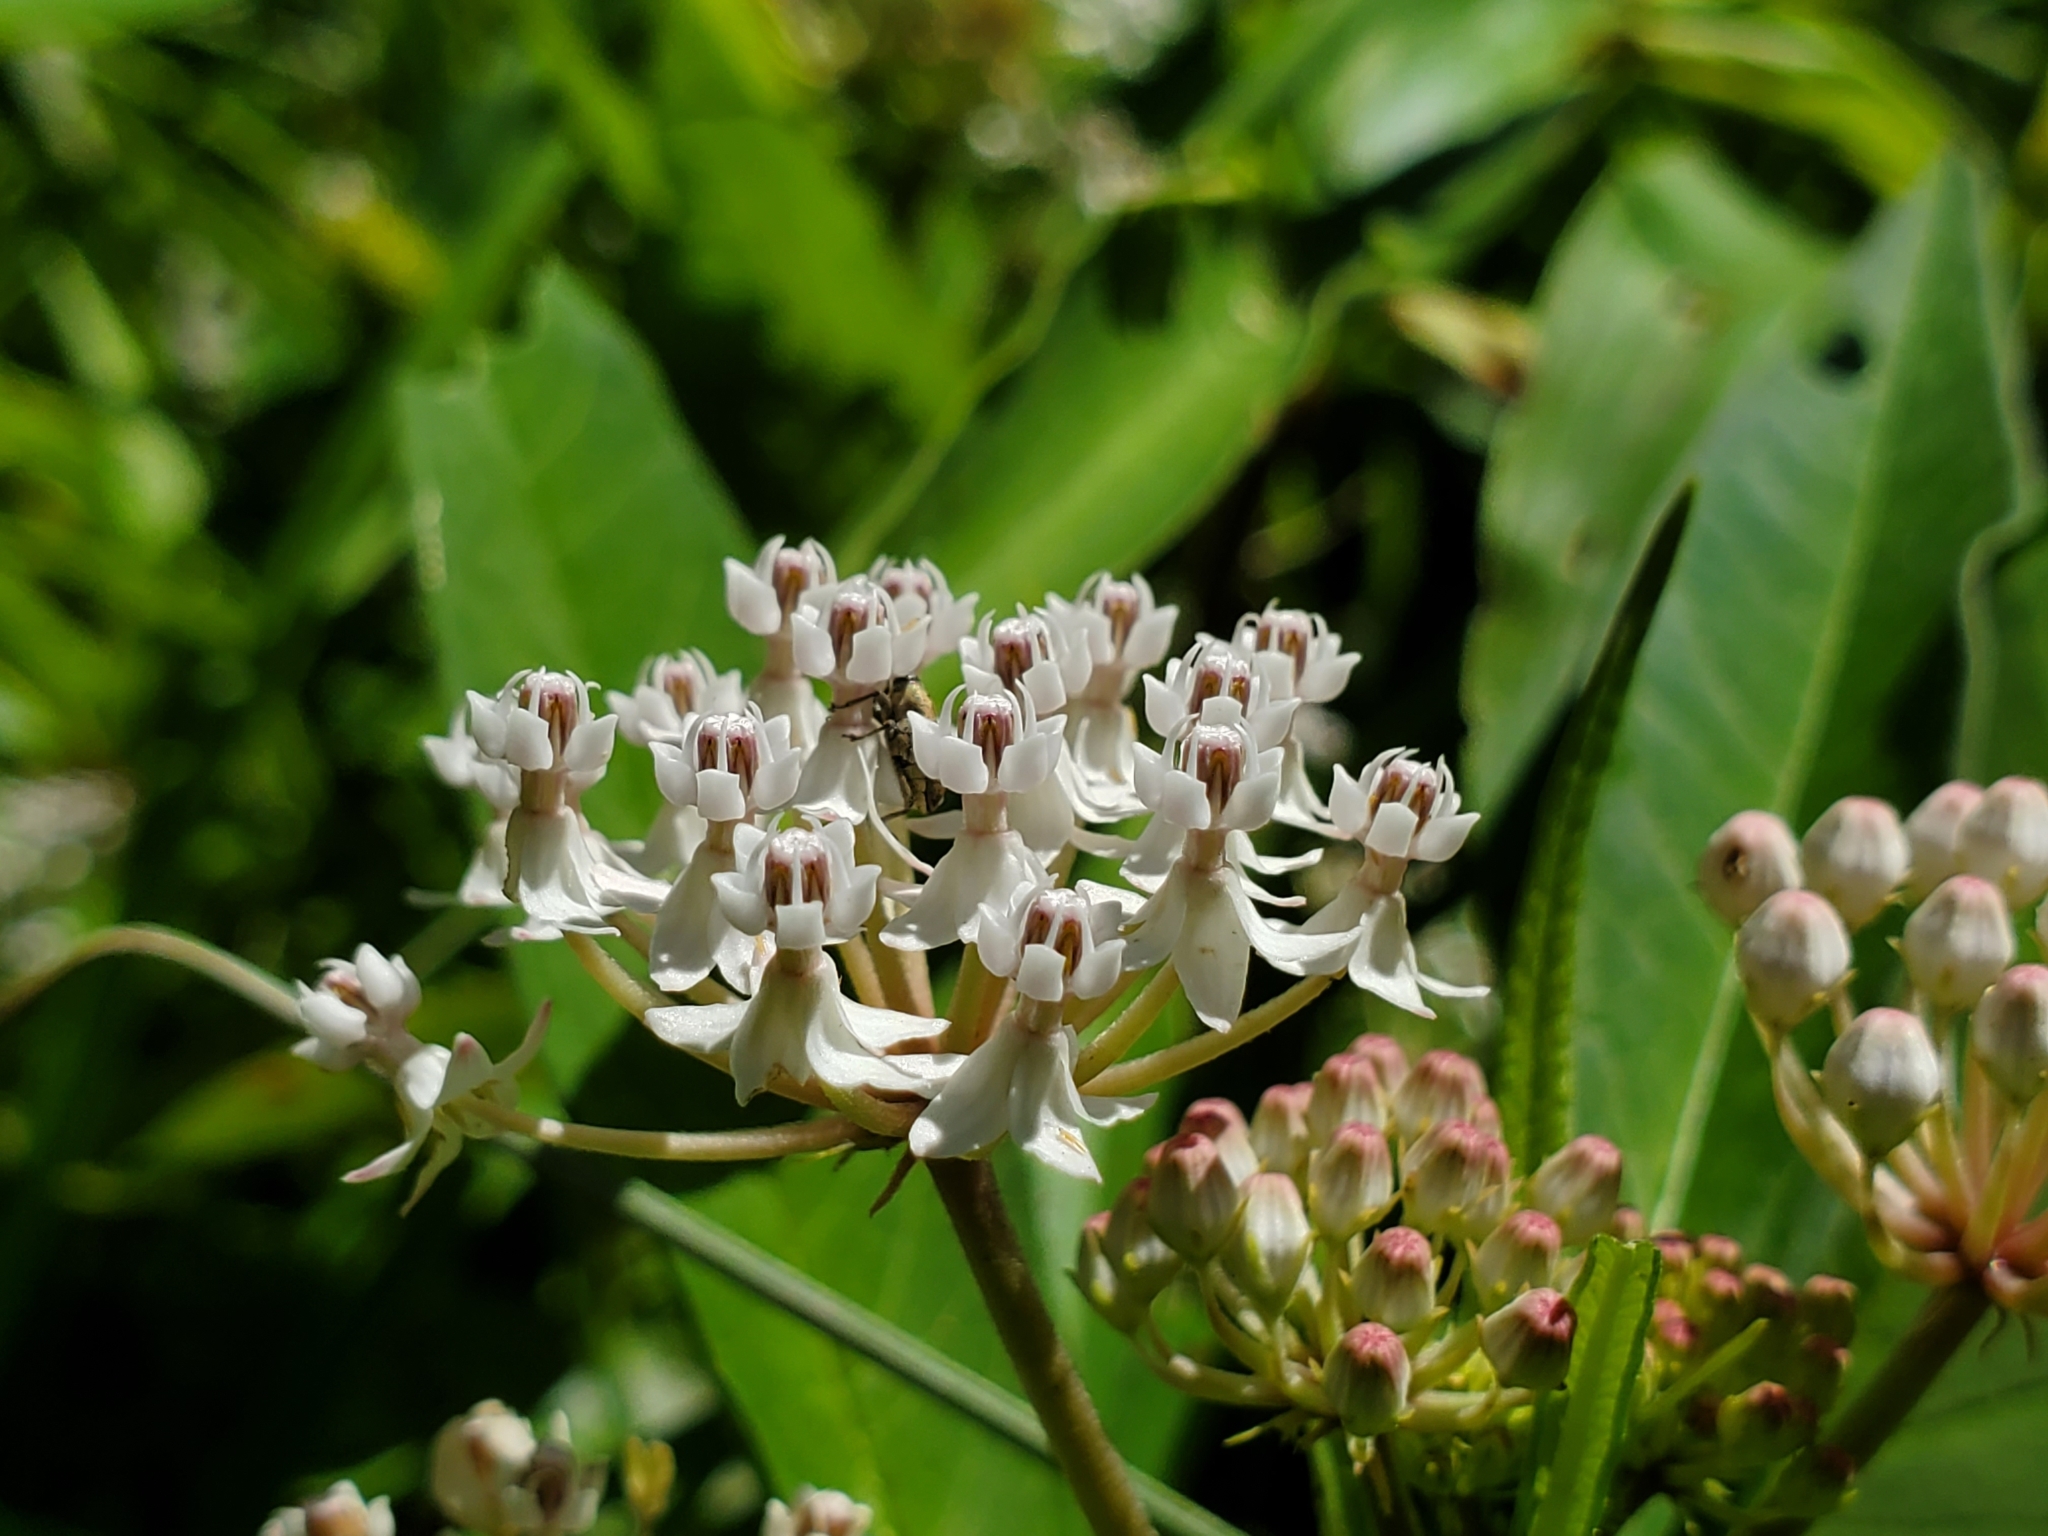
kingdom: Plantae
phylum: Tracheophyta
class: Magnoliopsida
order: Gentianales
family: Apocynaceae
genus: Asclepias
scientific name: Asclepias perennis
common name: Smooth-seed milkweed
